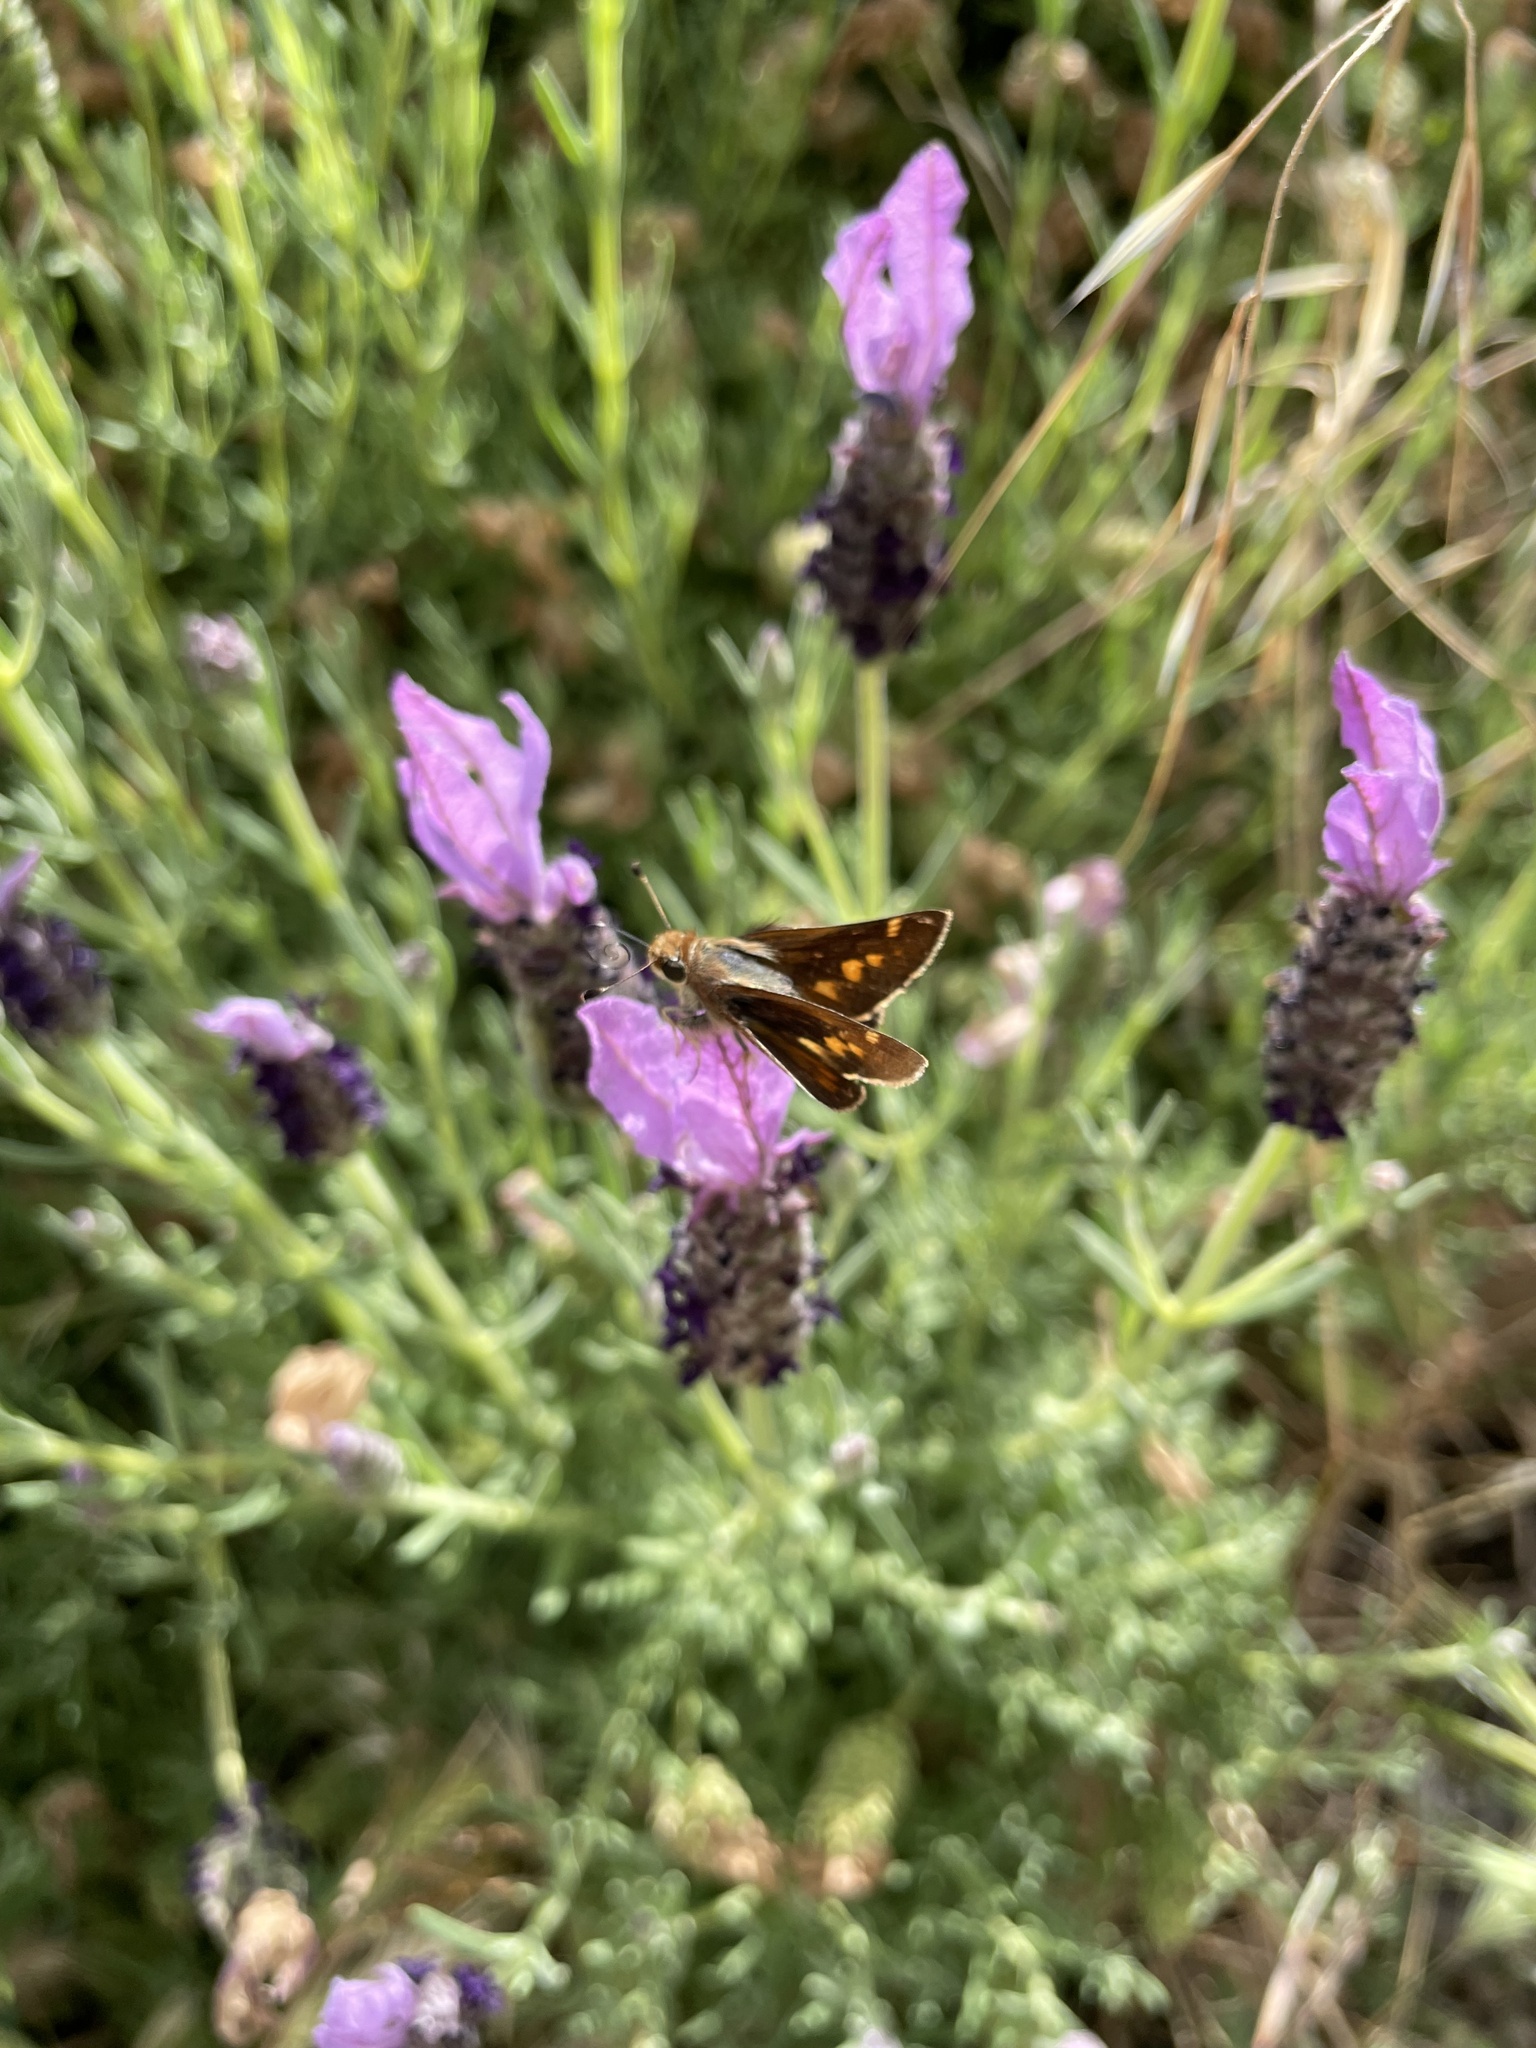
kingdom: Animalia
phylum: Arthropoda
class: Insecta
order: Lepidoptera
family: Hesperiidae
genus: Lon
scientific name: Lon melane
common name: Umber skipper
